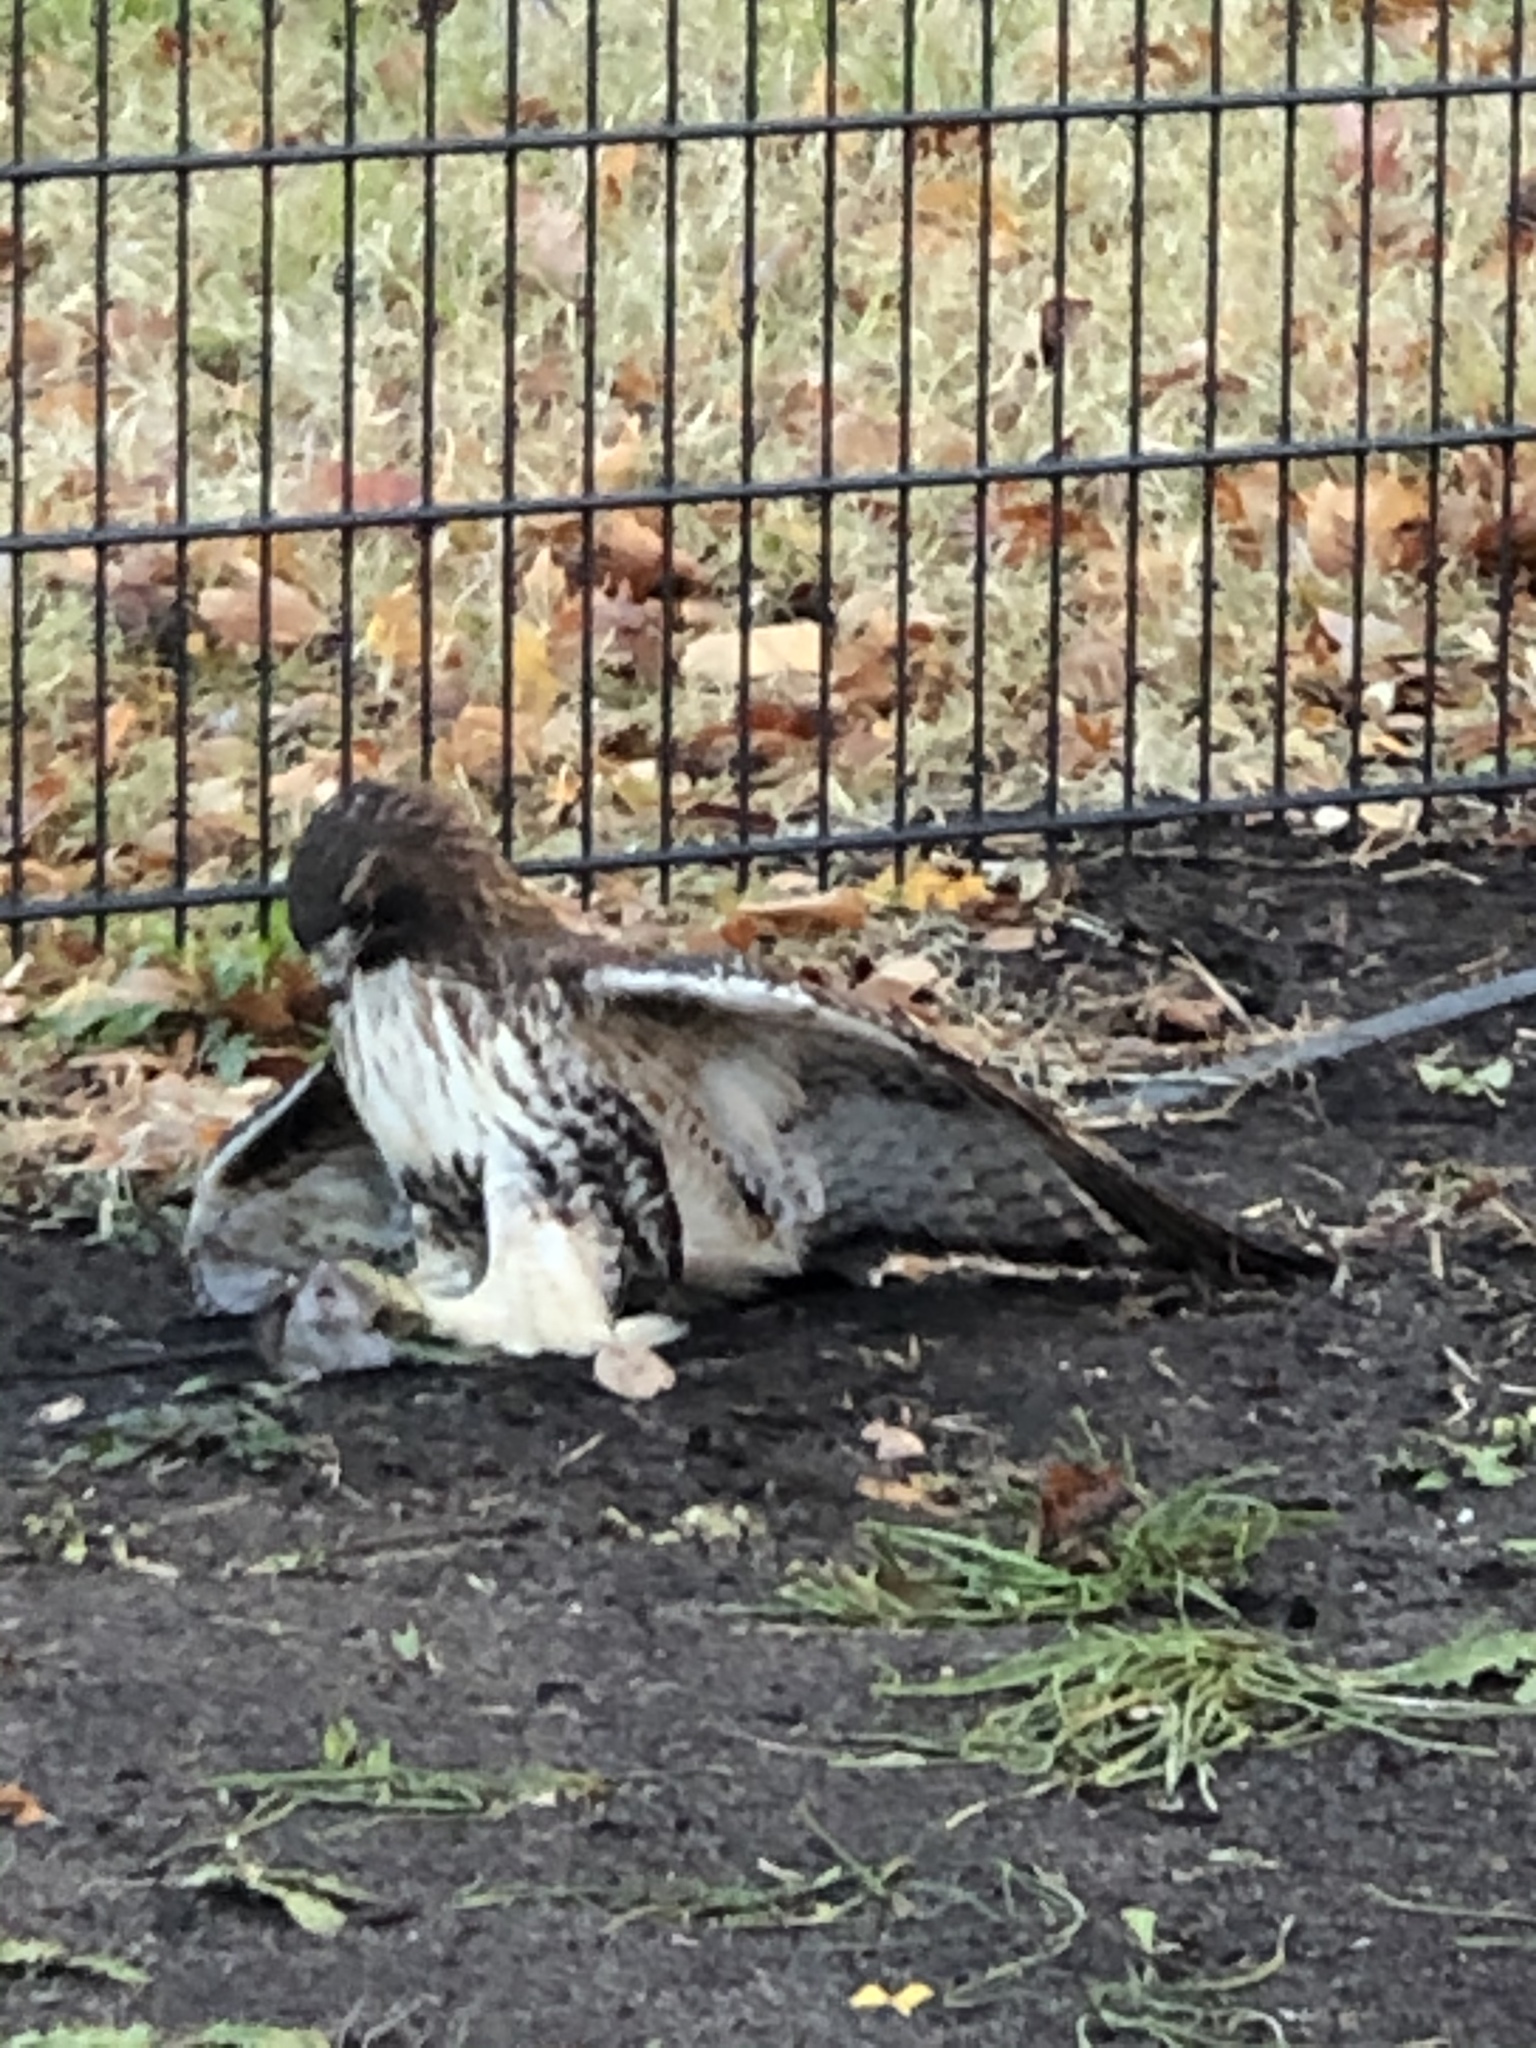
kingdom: Animalia
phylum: Chordata
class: Aves
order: Accipitriformes
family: Accipitridae
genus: Buteo
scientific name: Buteo jamaicensis
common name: Red-tailed hawk
